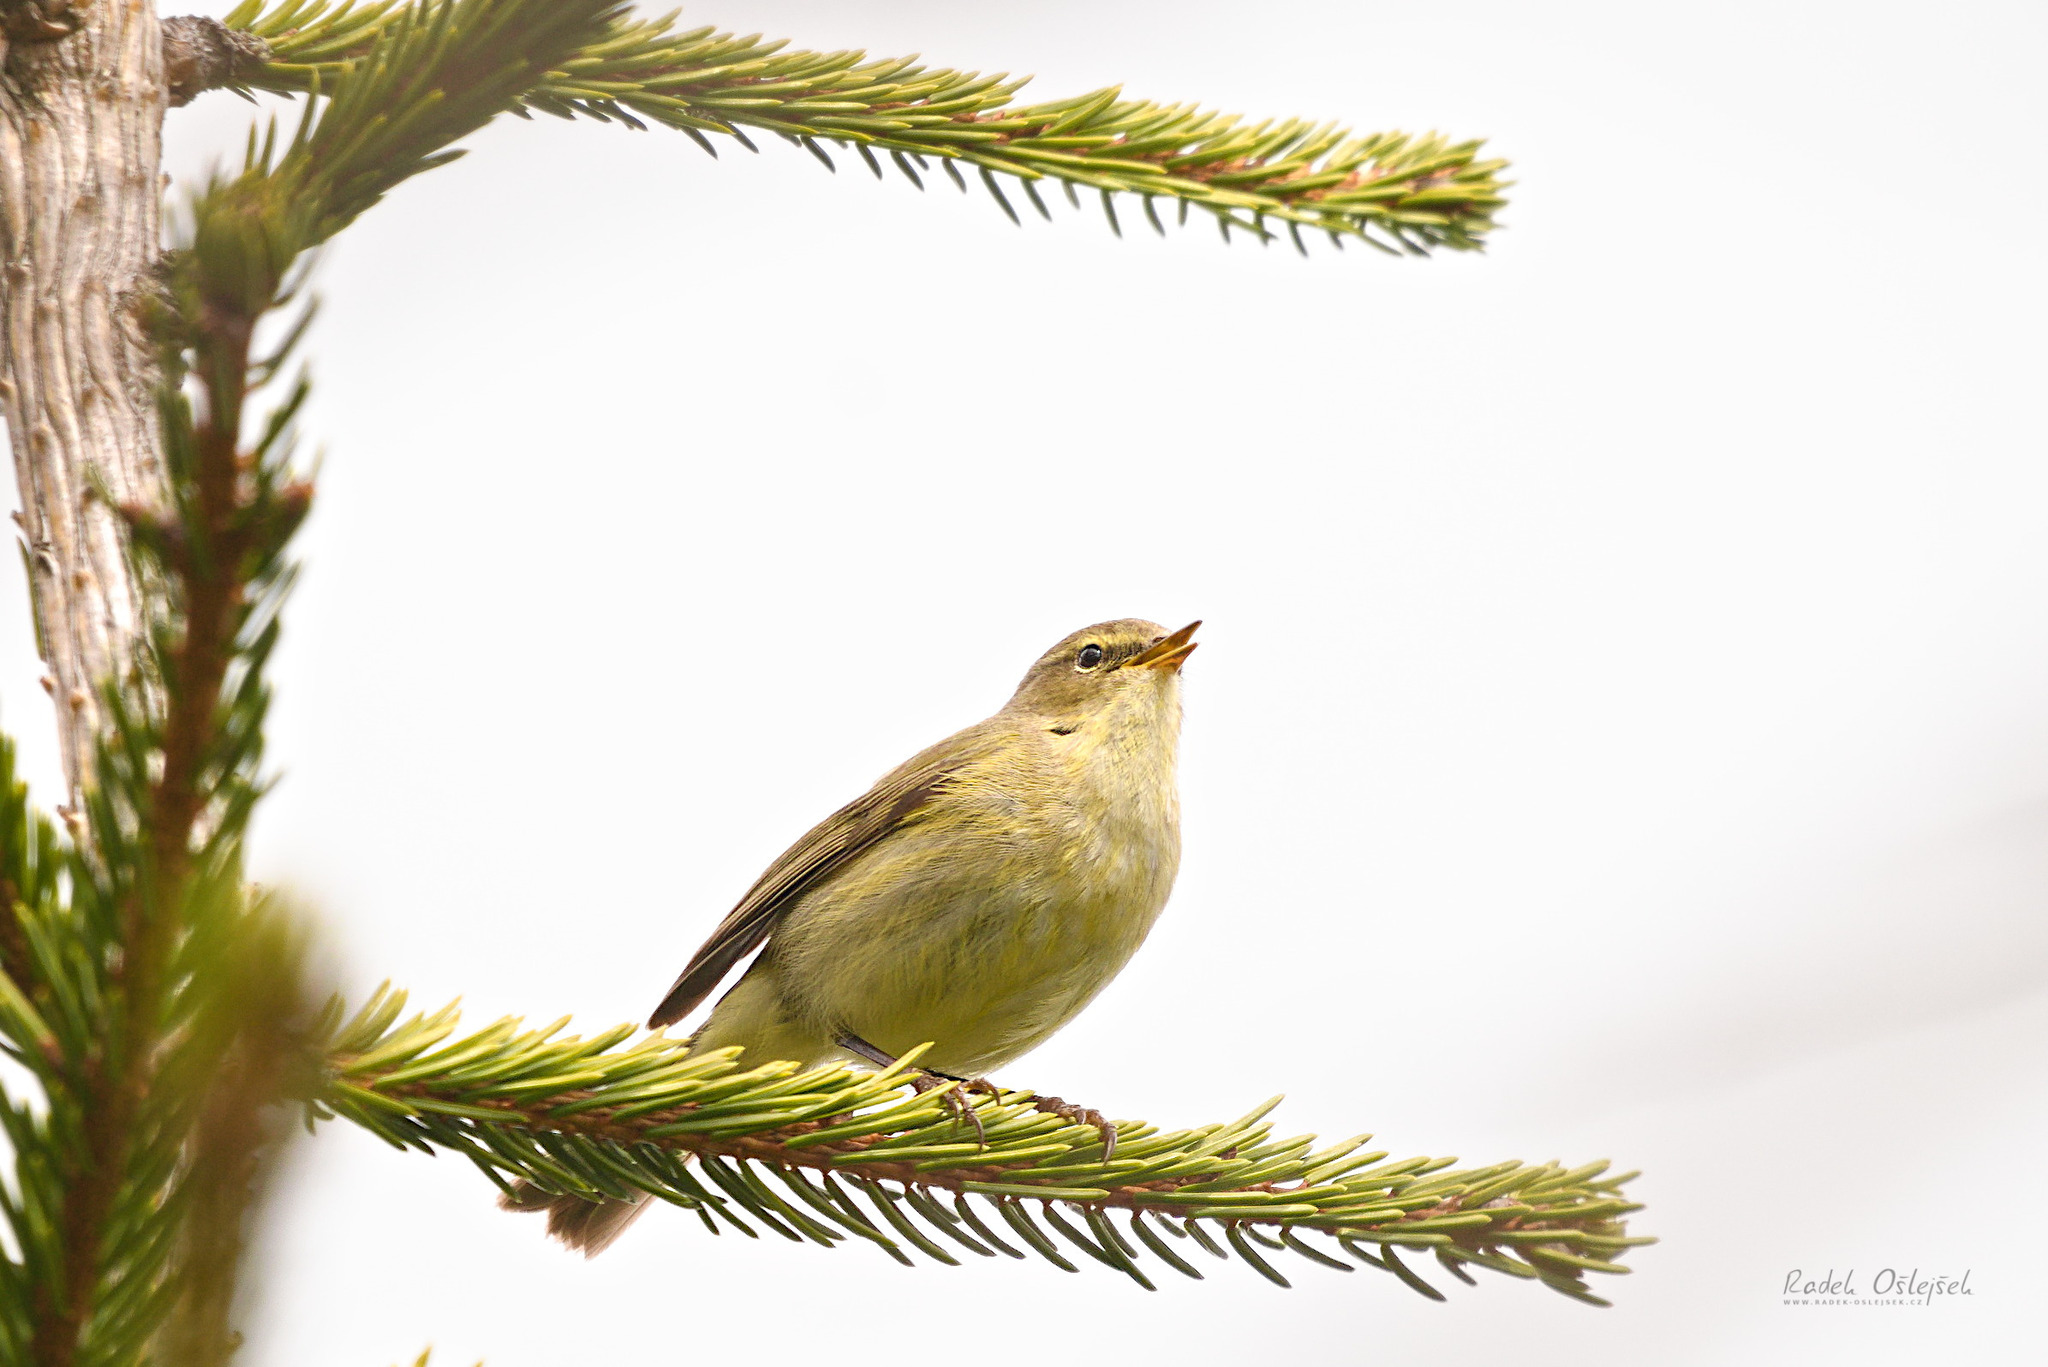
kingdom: Animalia
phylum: Chordata
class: Aves
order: Passeriformes
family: Phylloscopidae
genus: Phylloscopus
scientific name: Phylloscopus collybita
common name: Common chiffchaff
